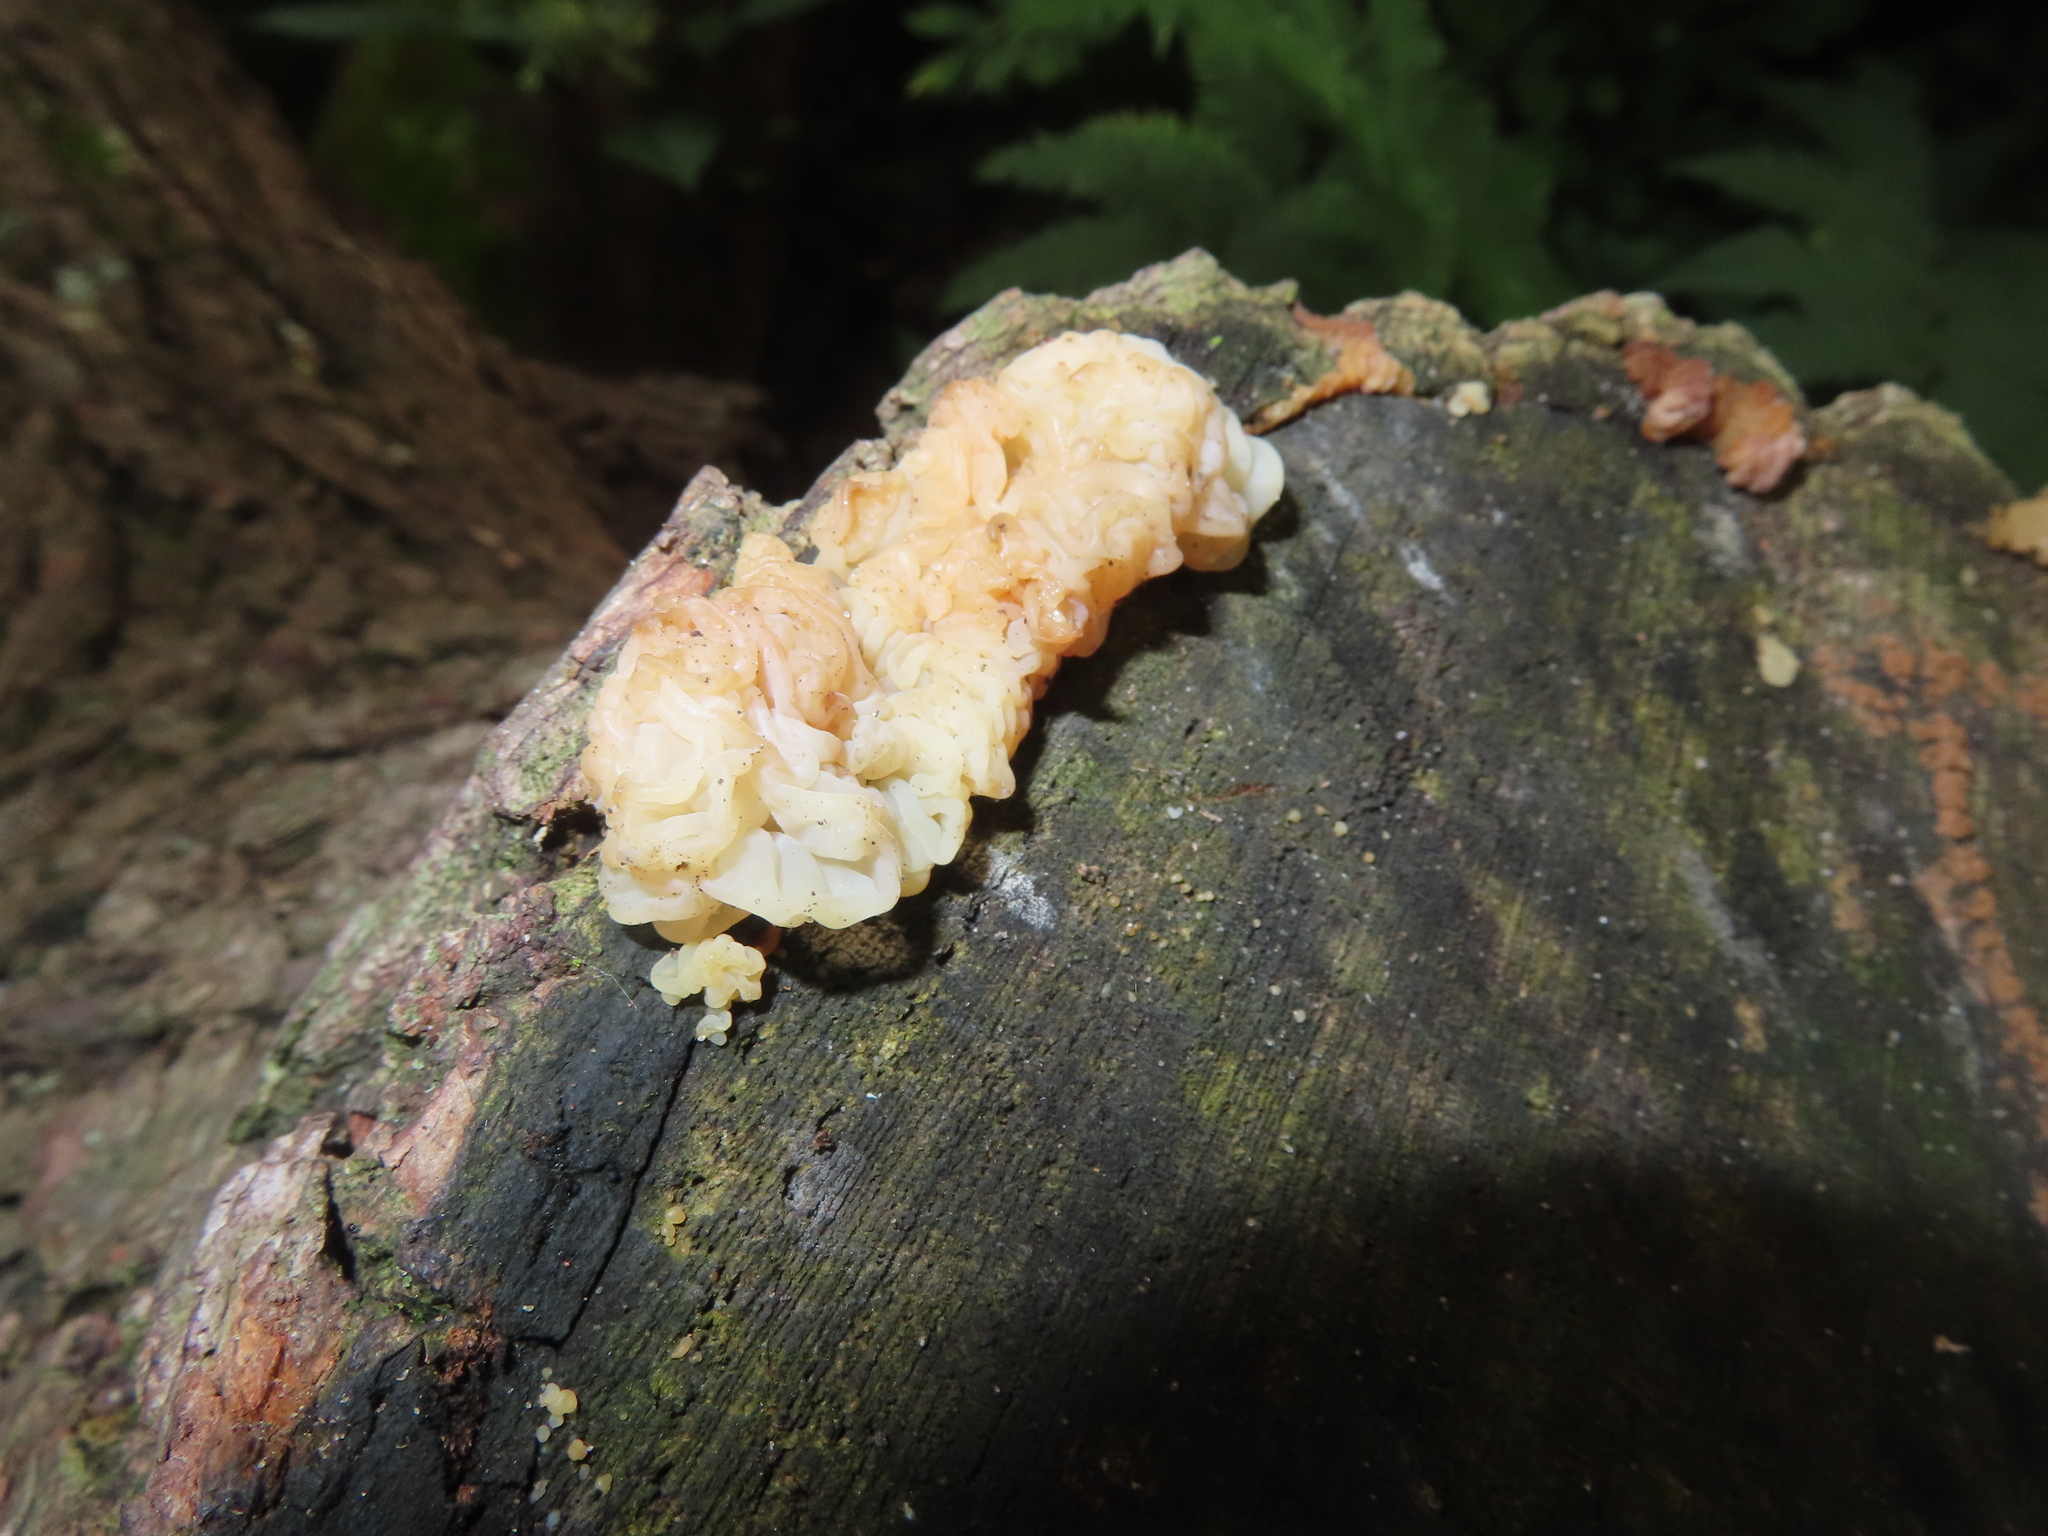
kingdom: Fungi
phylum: Basidiomycota
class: Agaricomycetes
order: Auriculariales
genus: Ductifera
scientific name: Ductifera pululahuana
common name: White jelly fungus
